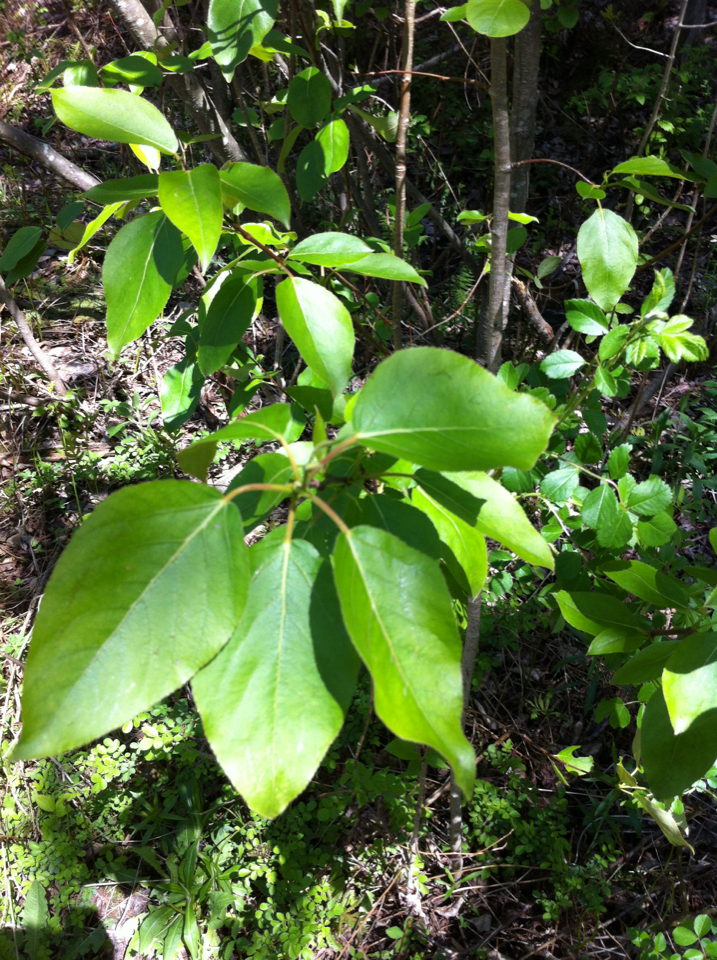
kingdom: Plantae
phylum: Tracheophyta
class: Magnoliopsida
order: Malpighiales
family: Salicaceae
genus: Populus
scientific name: Populus balsamifera
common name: Balsam poplar
